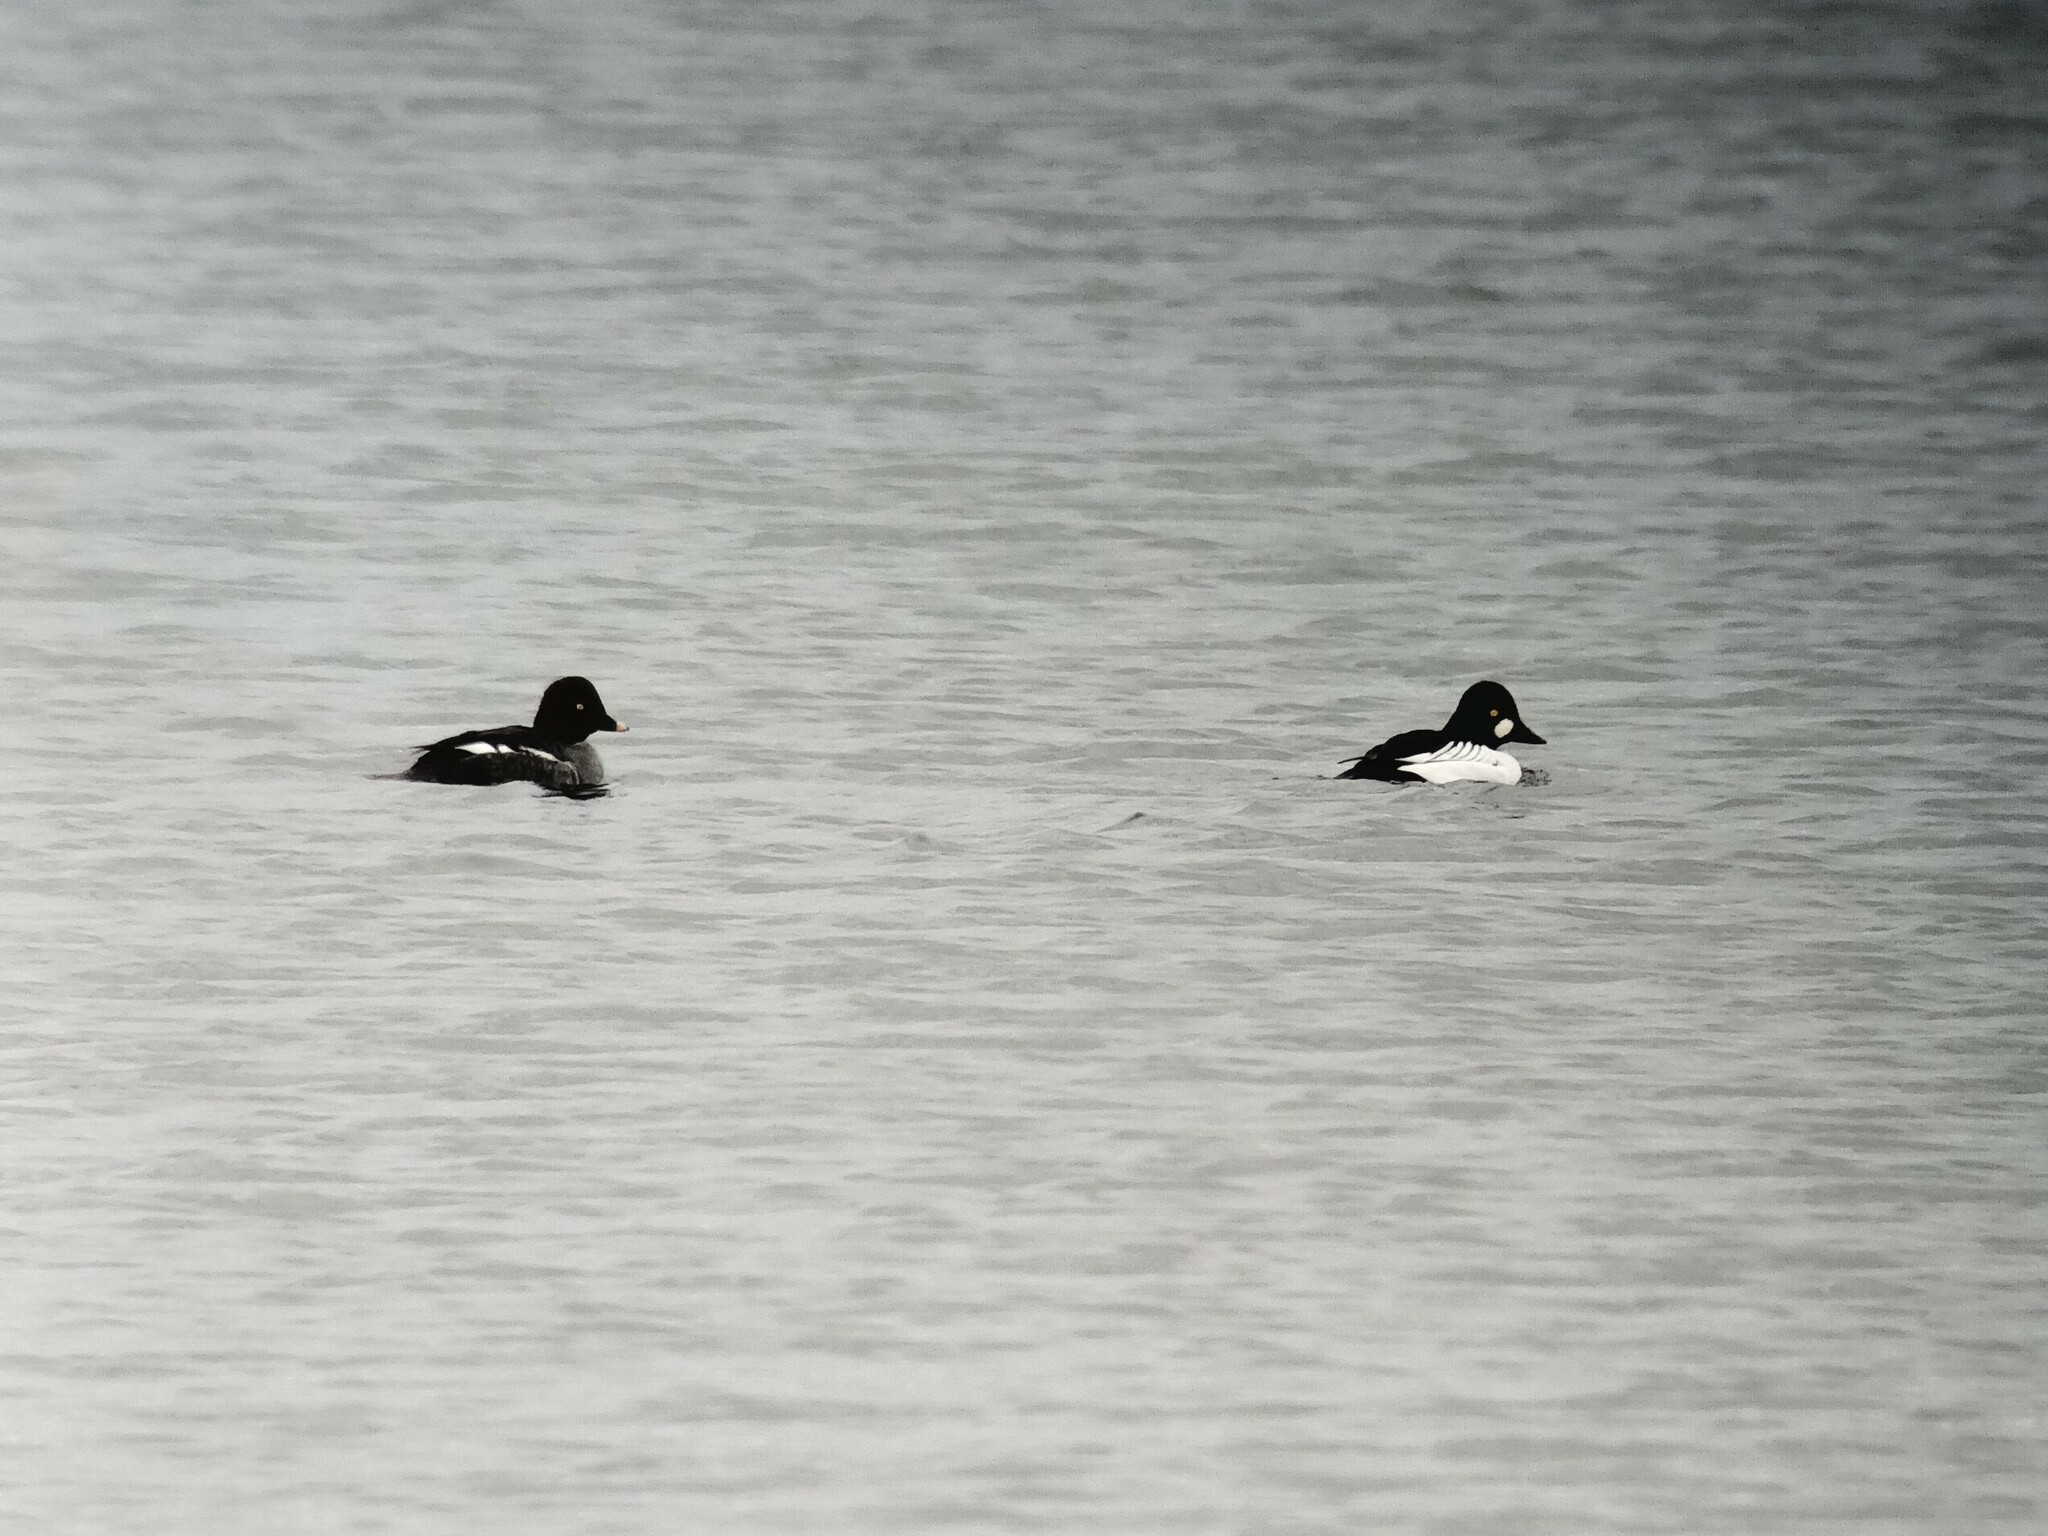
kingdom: Animalia
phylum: Chordata
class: Aves
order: Anseriformes
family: Anatidae
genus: Bucephala
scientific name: Bucephala clangula
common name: Common goldeneye
